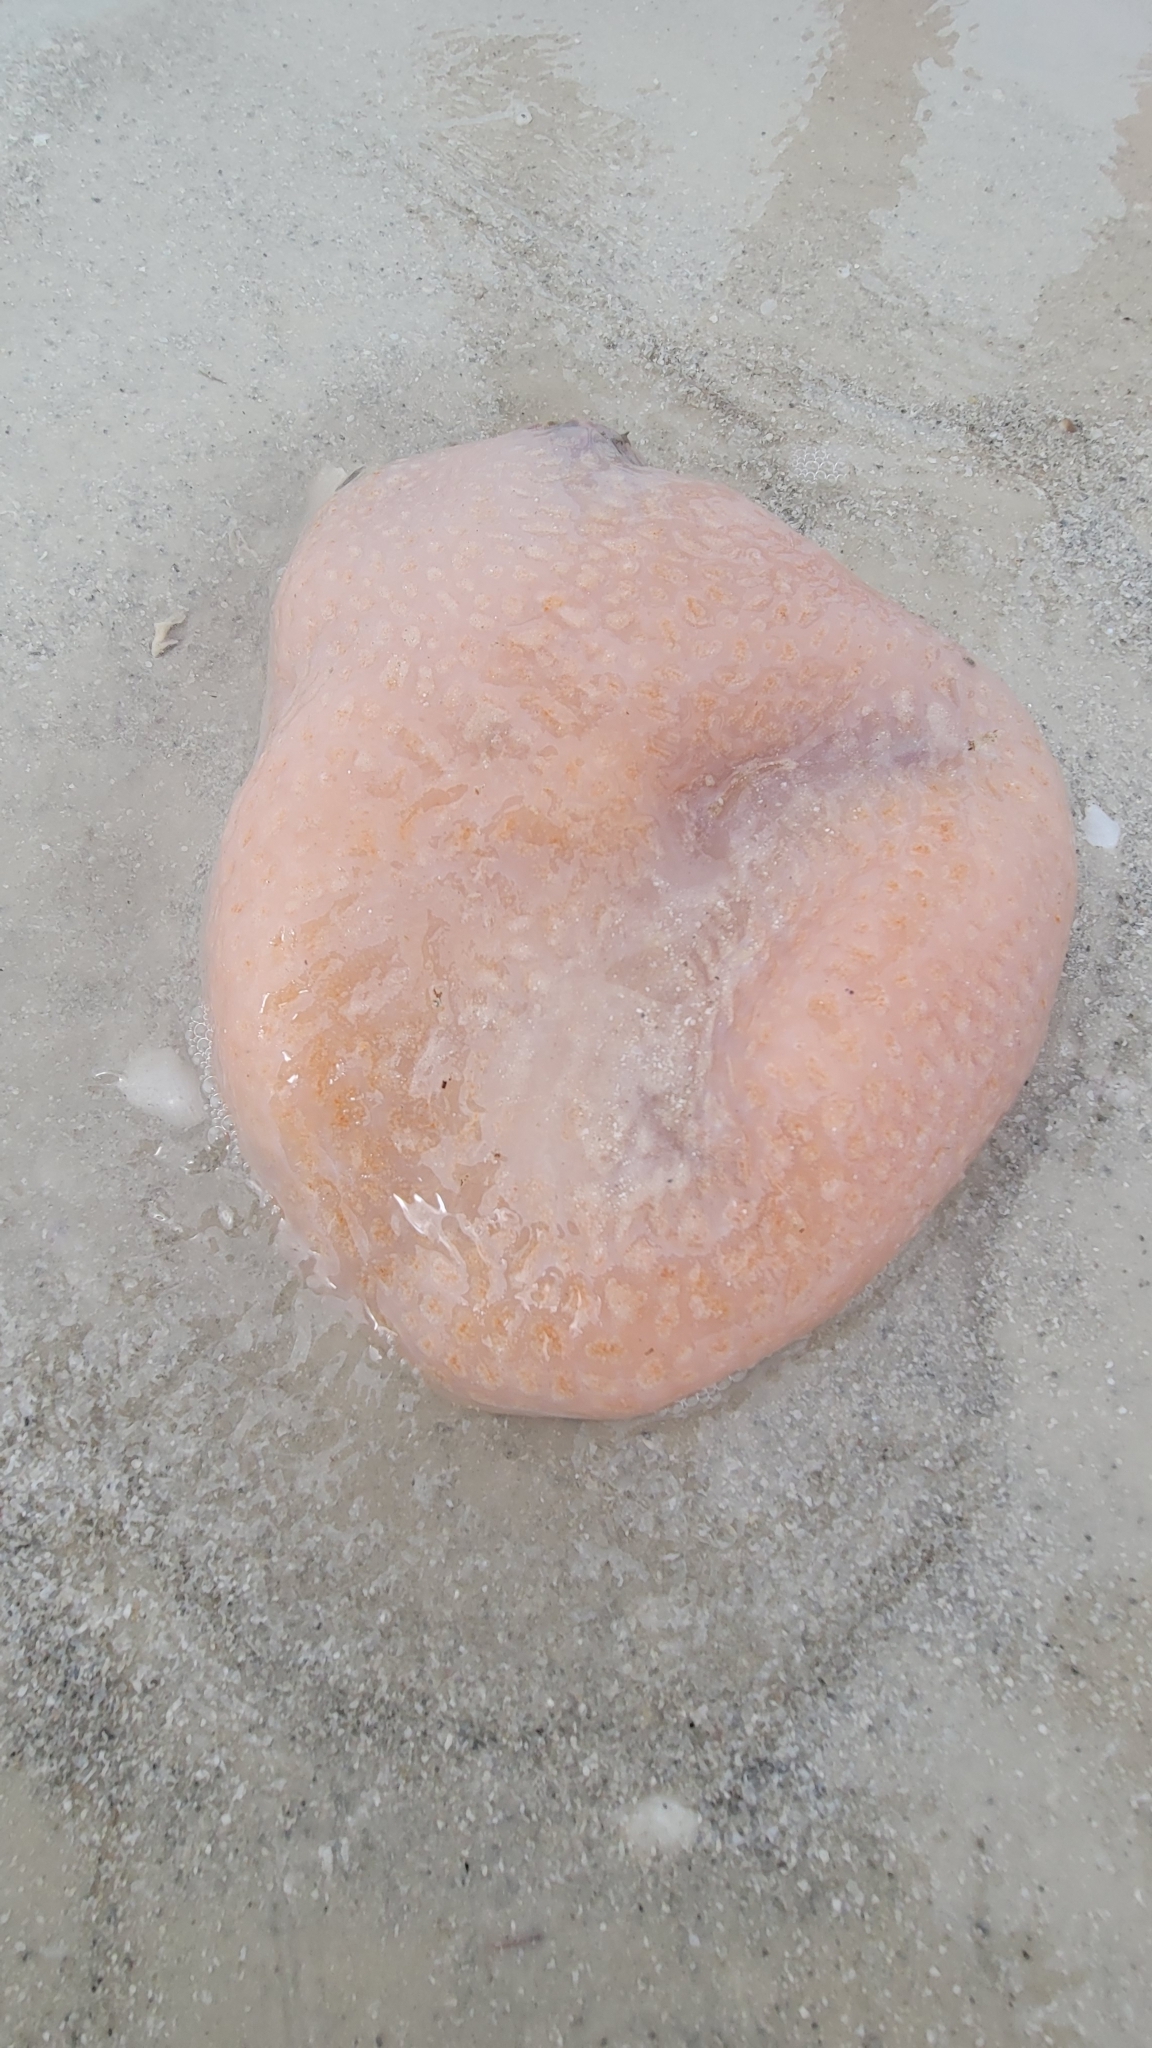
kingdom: Animalia
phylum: Chordata
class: Ascidiacea
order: Aplousobranchia
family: Polyclinidae
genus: Aplidium
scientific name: Aplidium stellatum
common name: Atlantic sea pork
